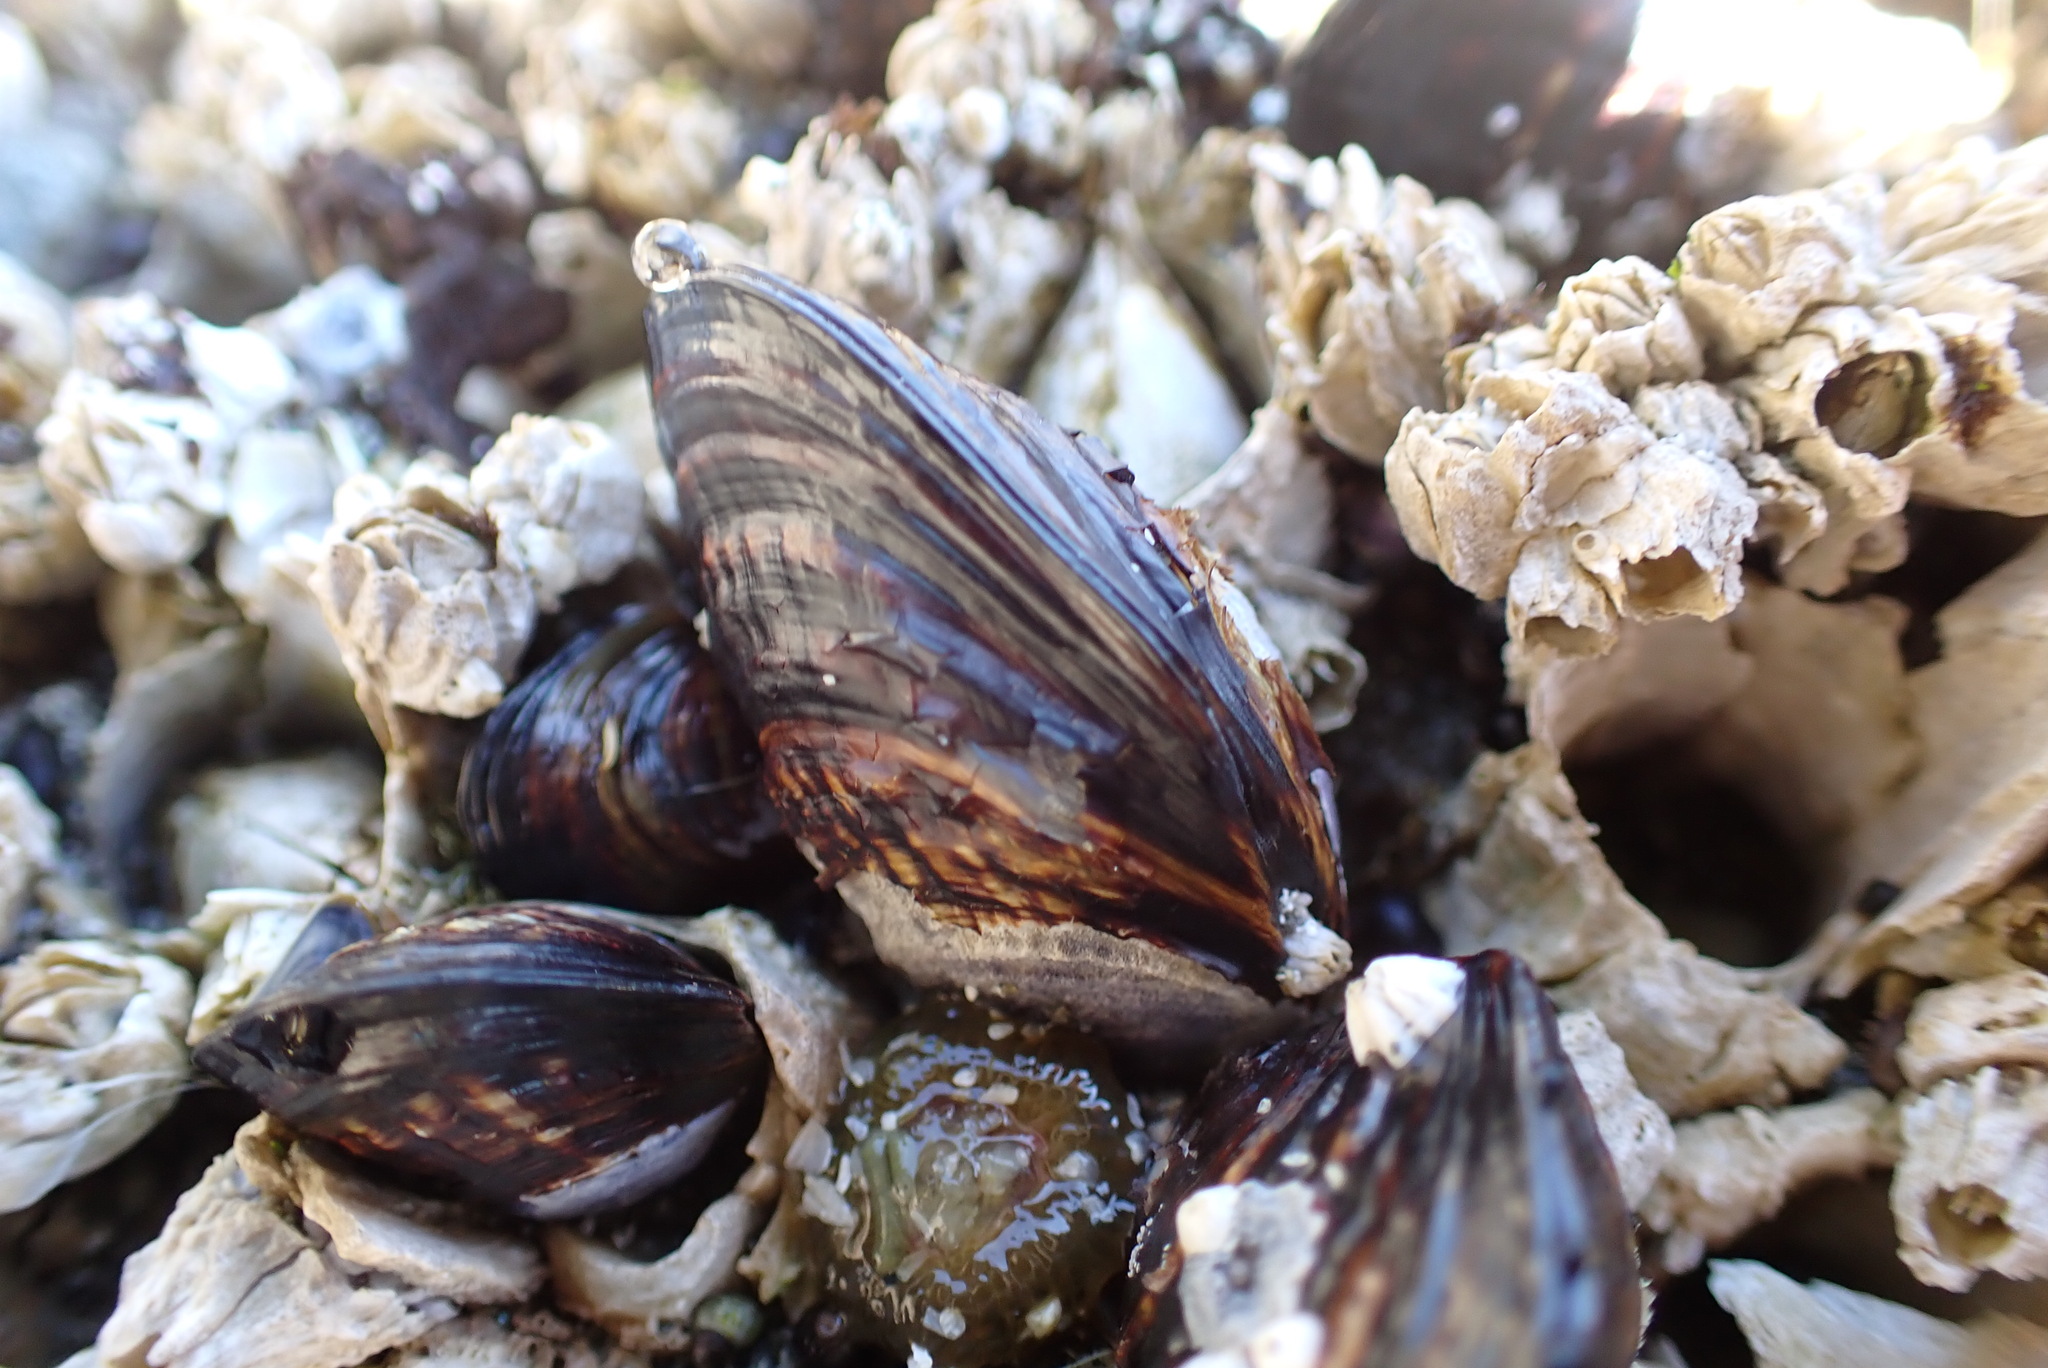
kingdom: Animalia
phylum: Mollusca
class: Bivalvia
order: Mytilida
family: Mytilidae
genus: Mytilus
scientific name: Mytilus californianus
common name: California mussel
